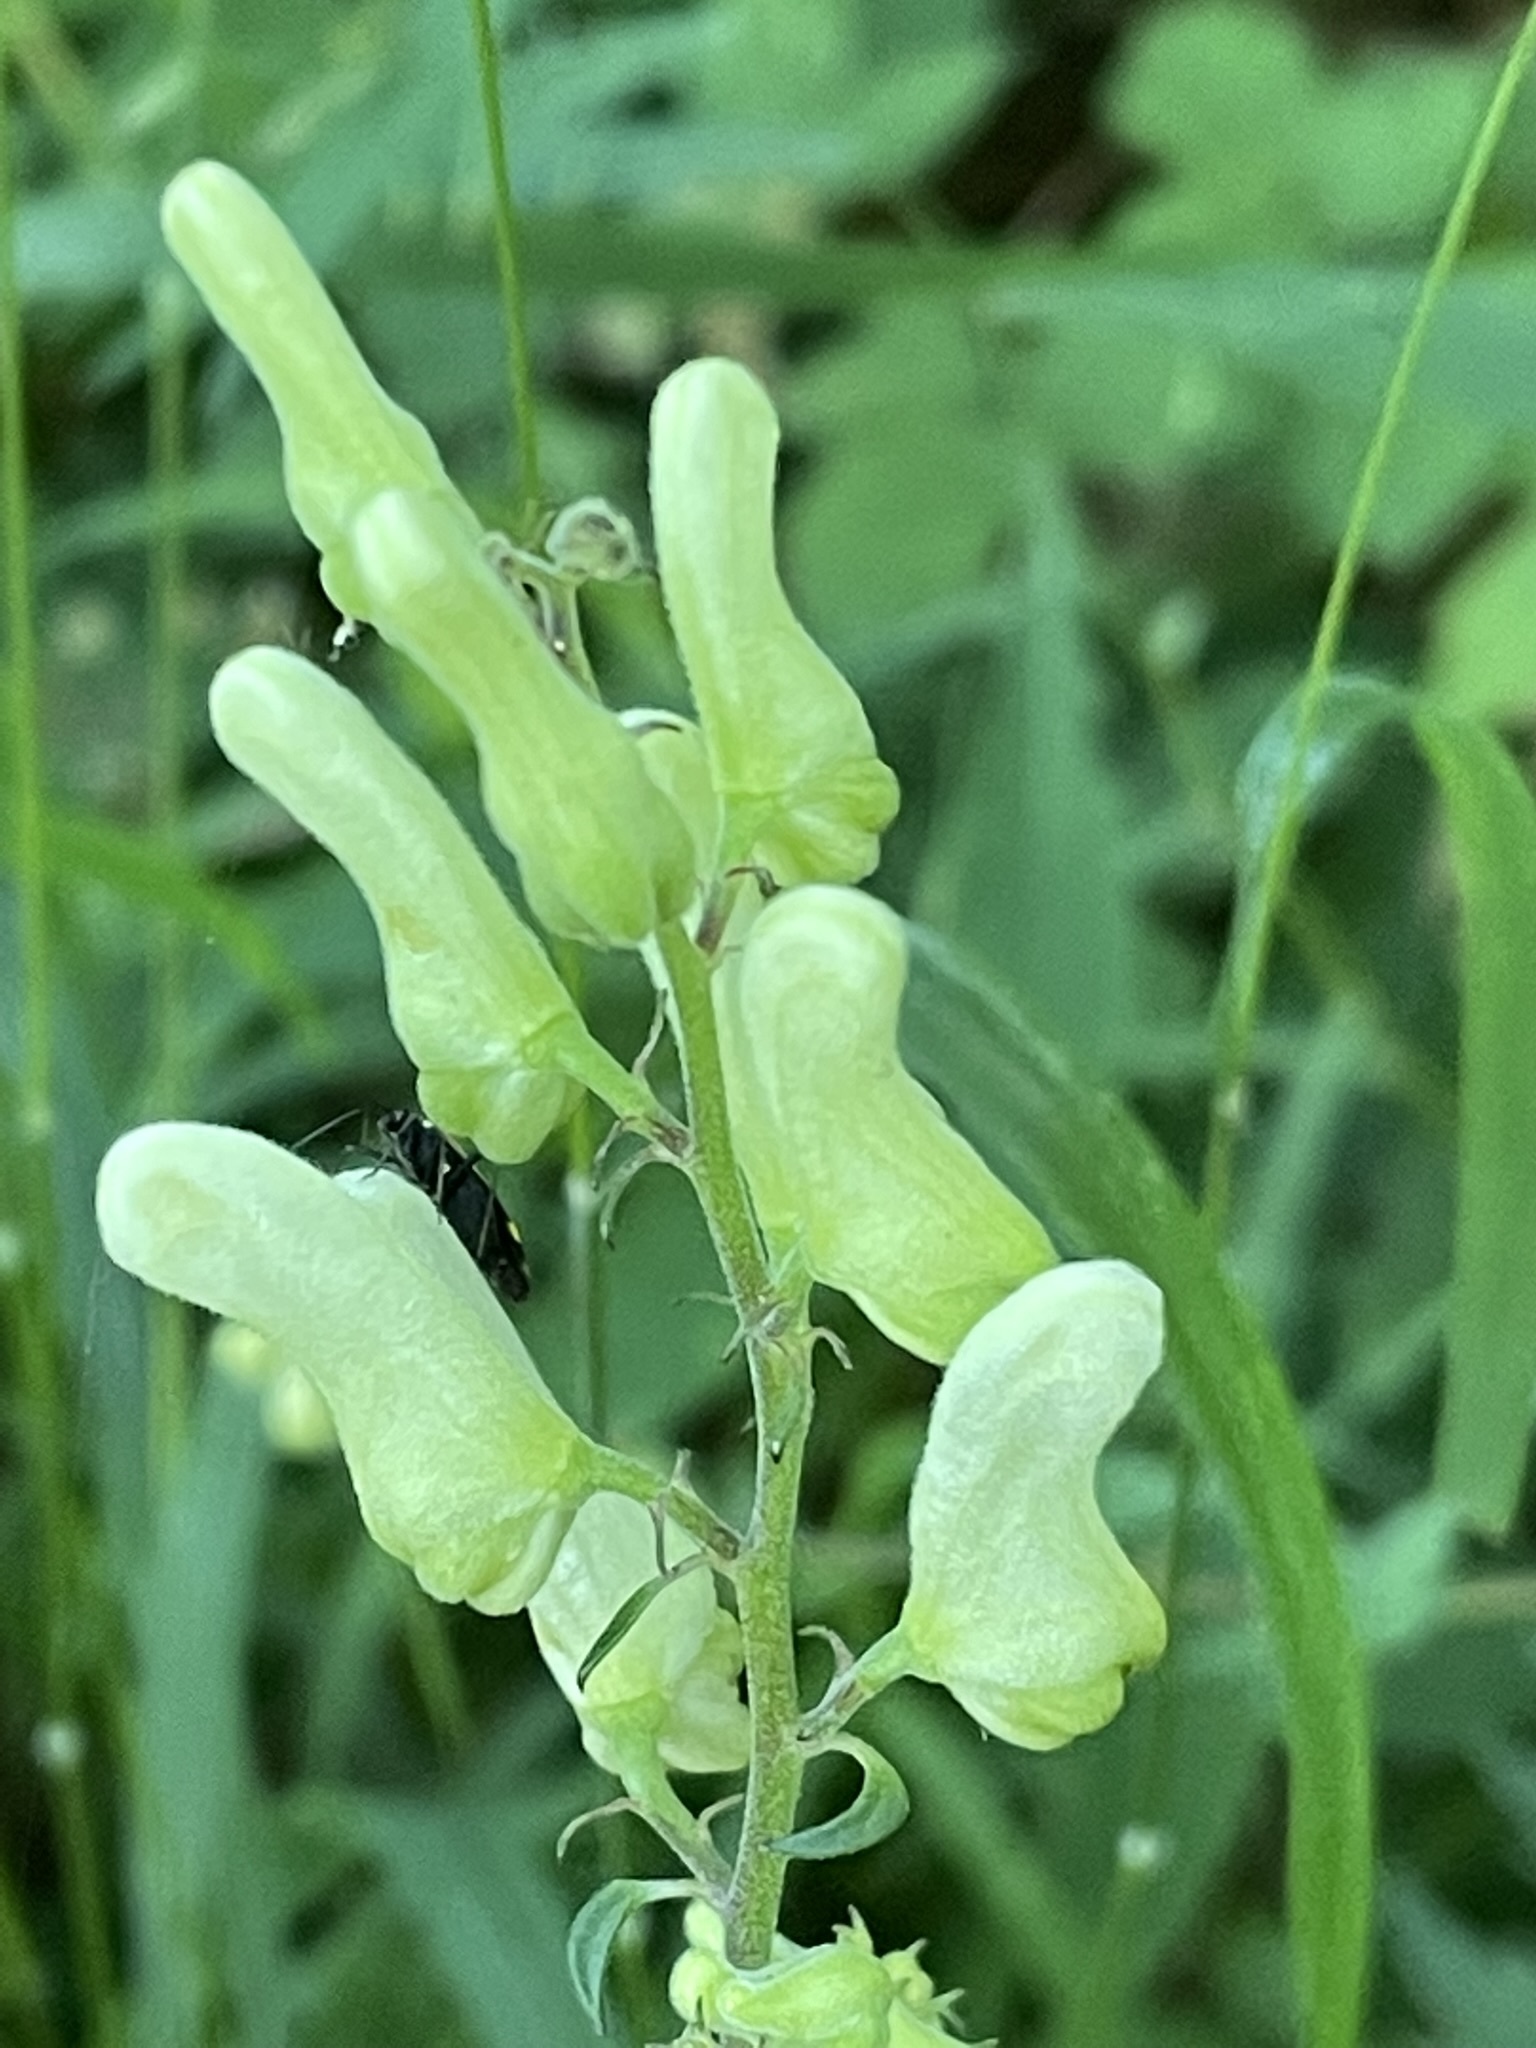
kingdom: Plantae
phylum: Tracheophyta
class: Magnoliopsida
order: Ranunculales
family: Ranunculaceae
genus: Aconitum
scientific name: Aconitum lycoctonum
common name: Wolf's-bane
